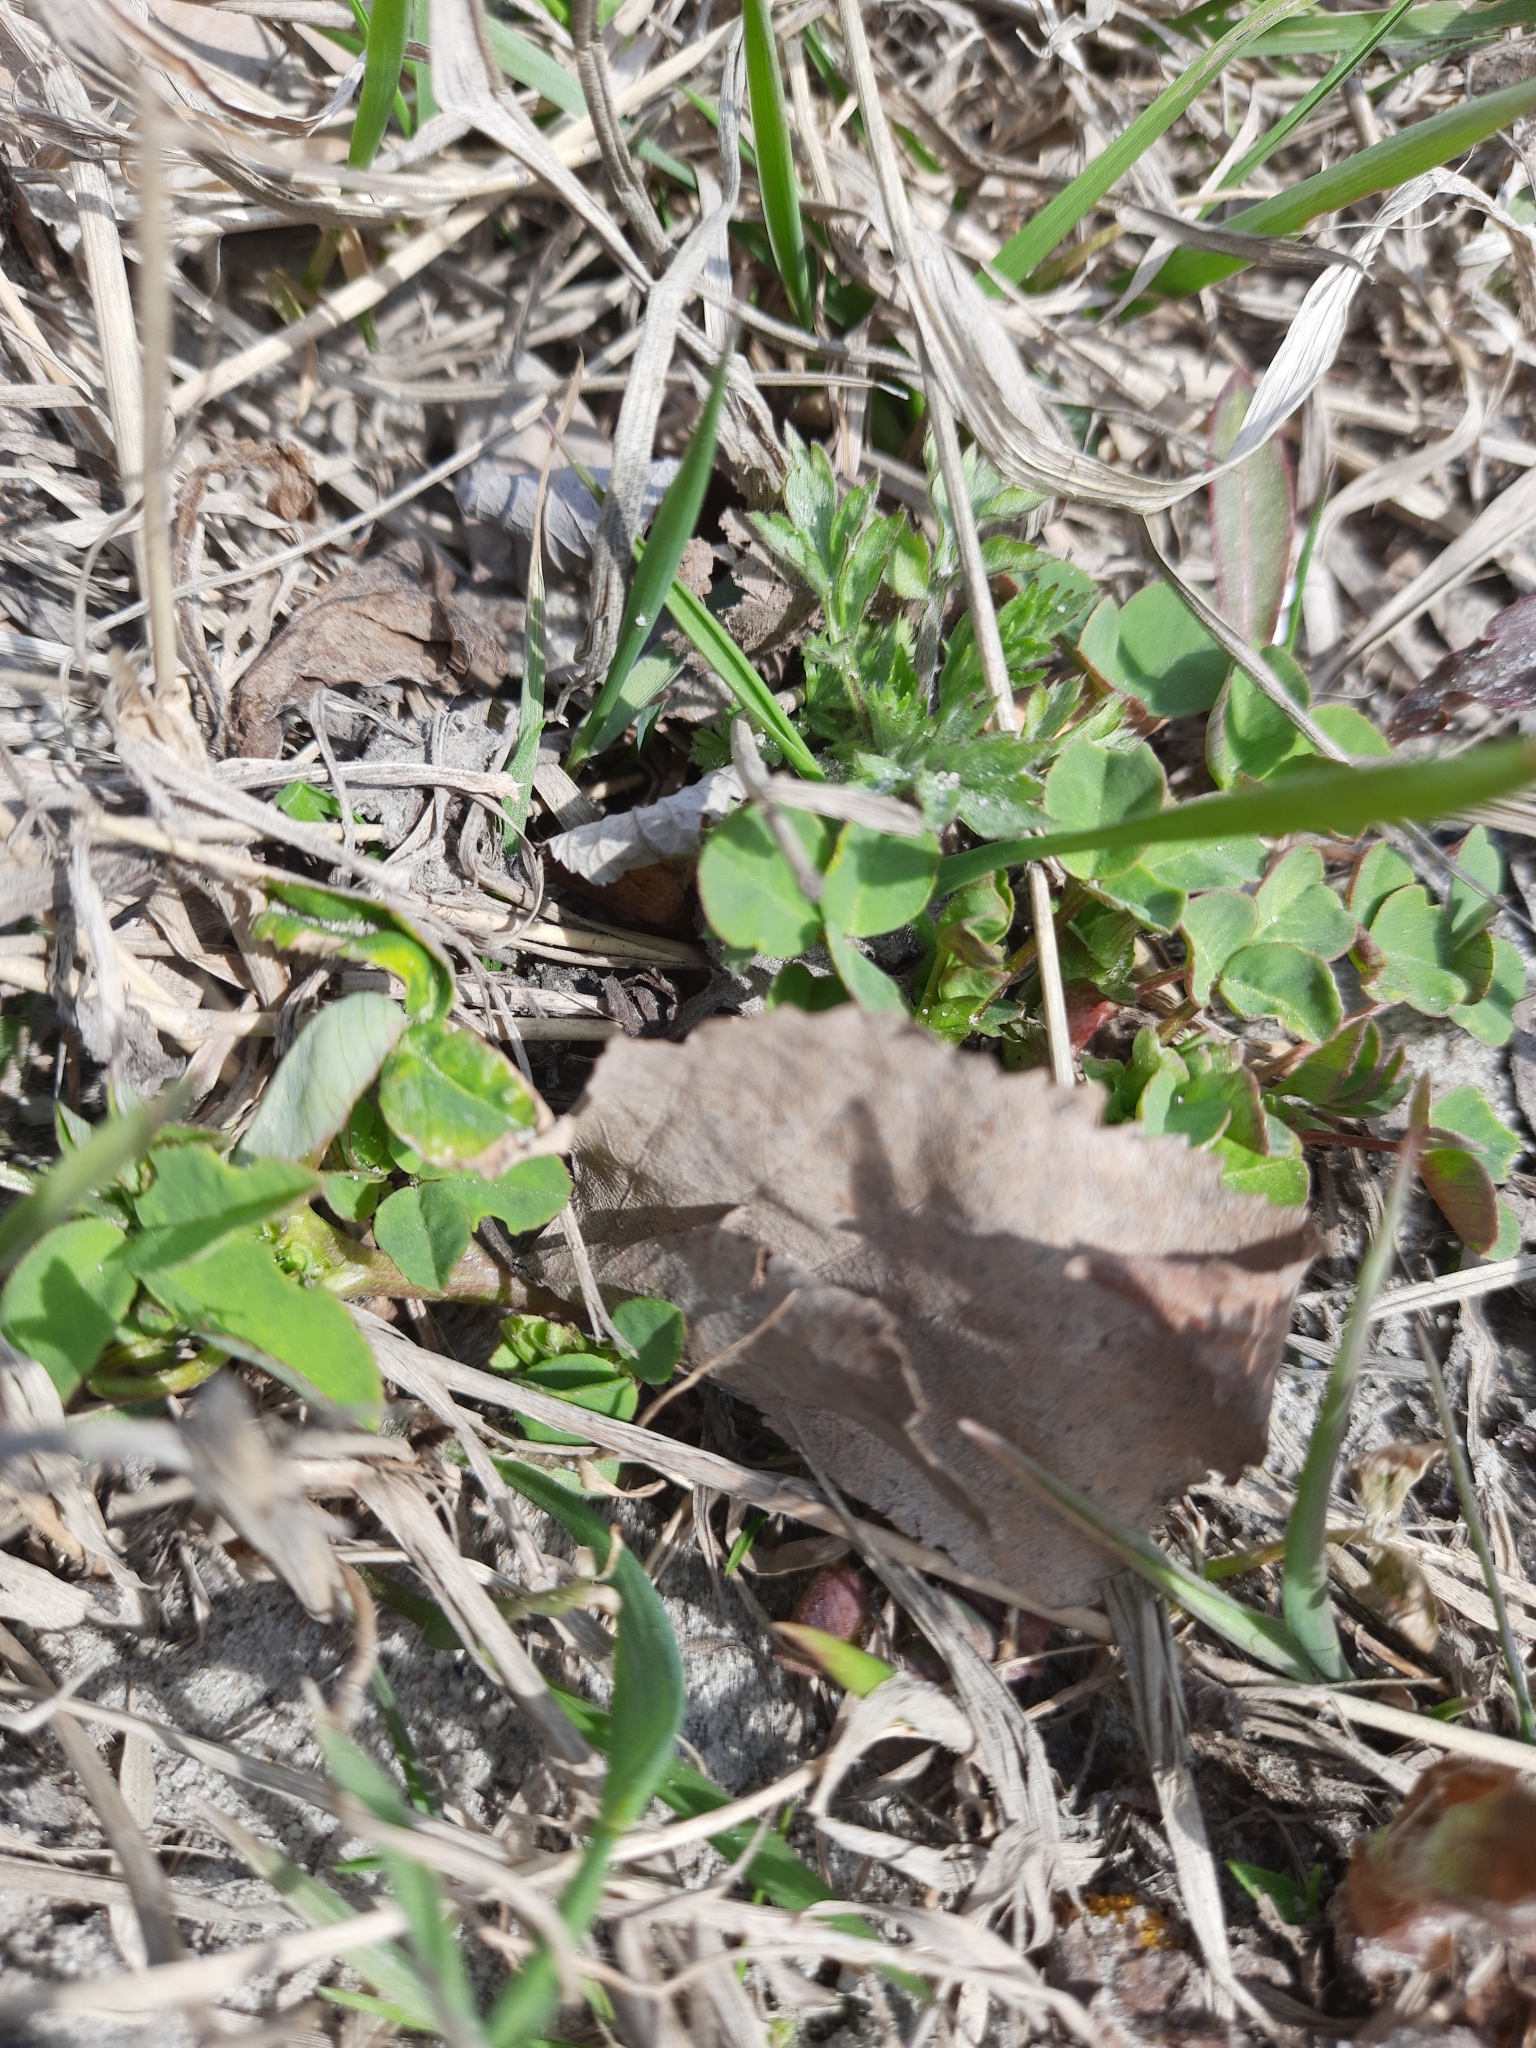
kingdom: Plantae
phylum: Tracheophyta
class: Magnoliopsida
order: Fabales
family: Fabaceae
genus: Trifolium
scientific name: Trifolium repens
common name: White clover
